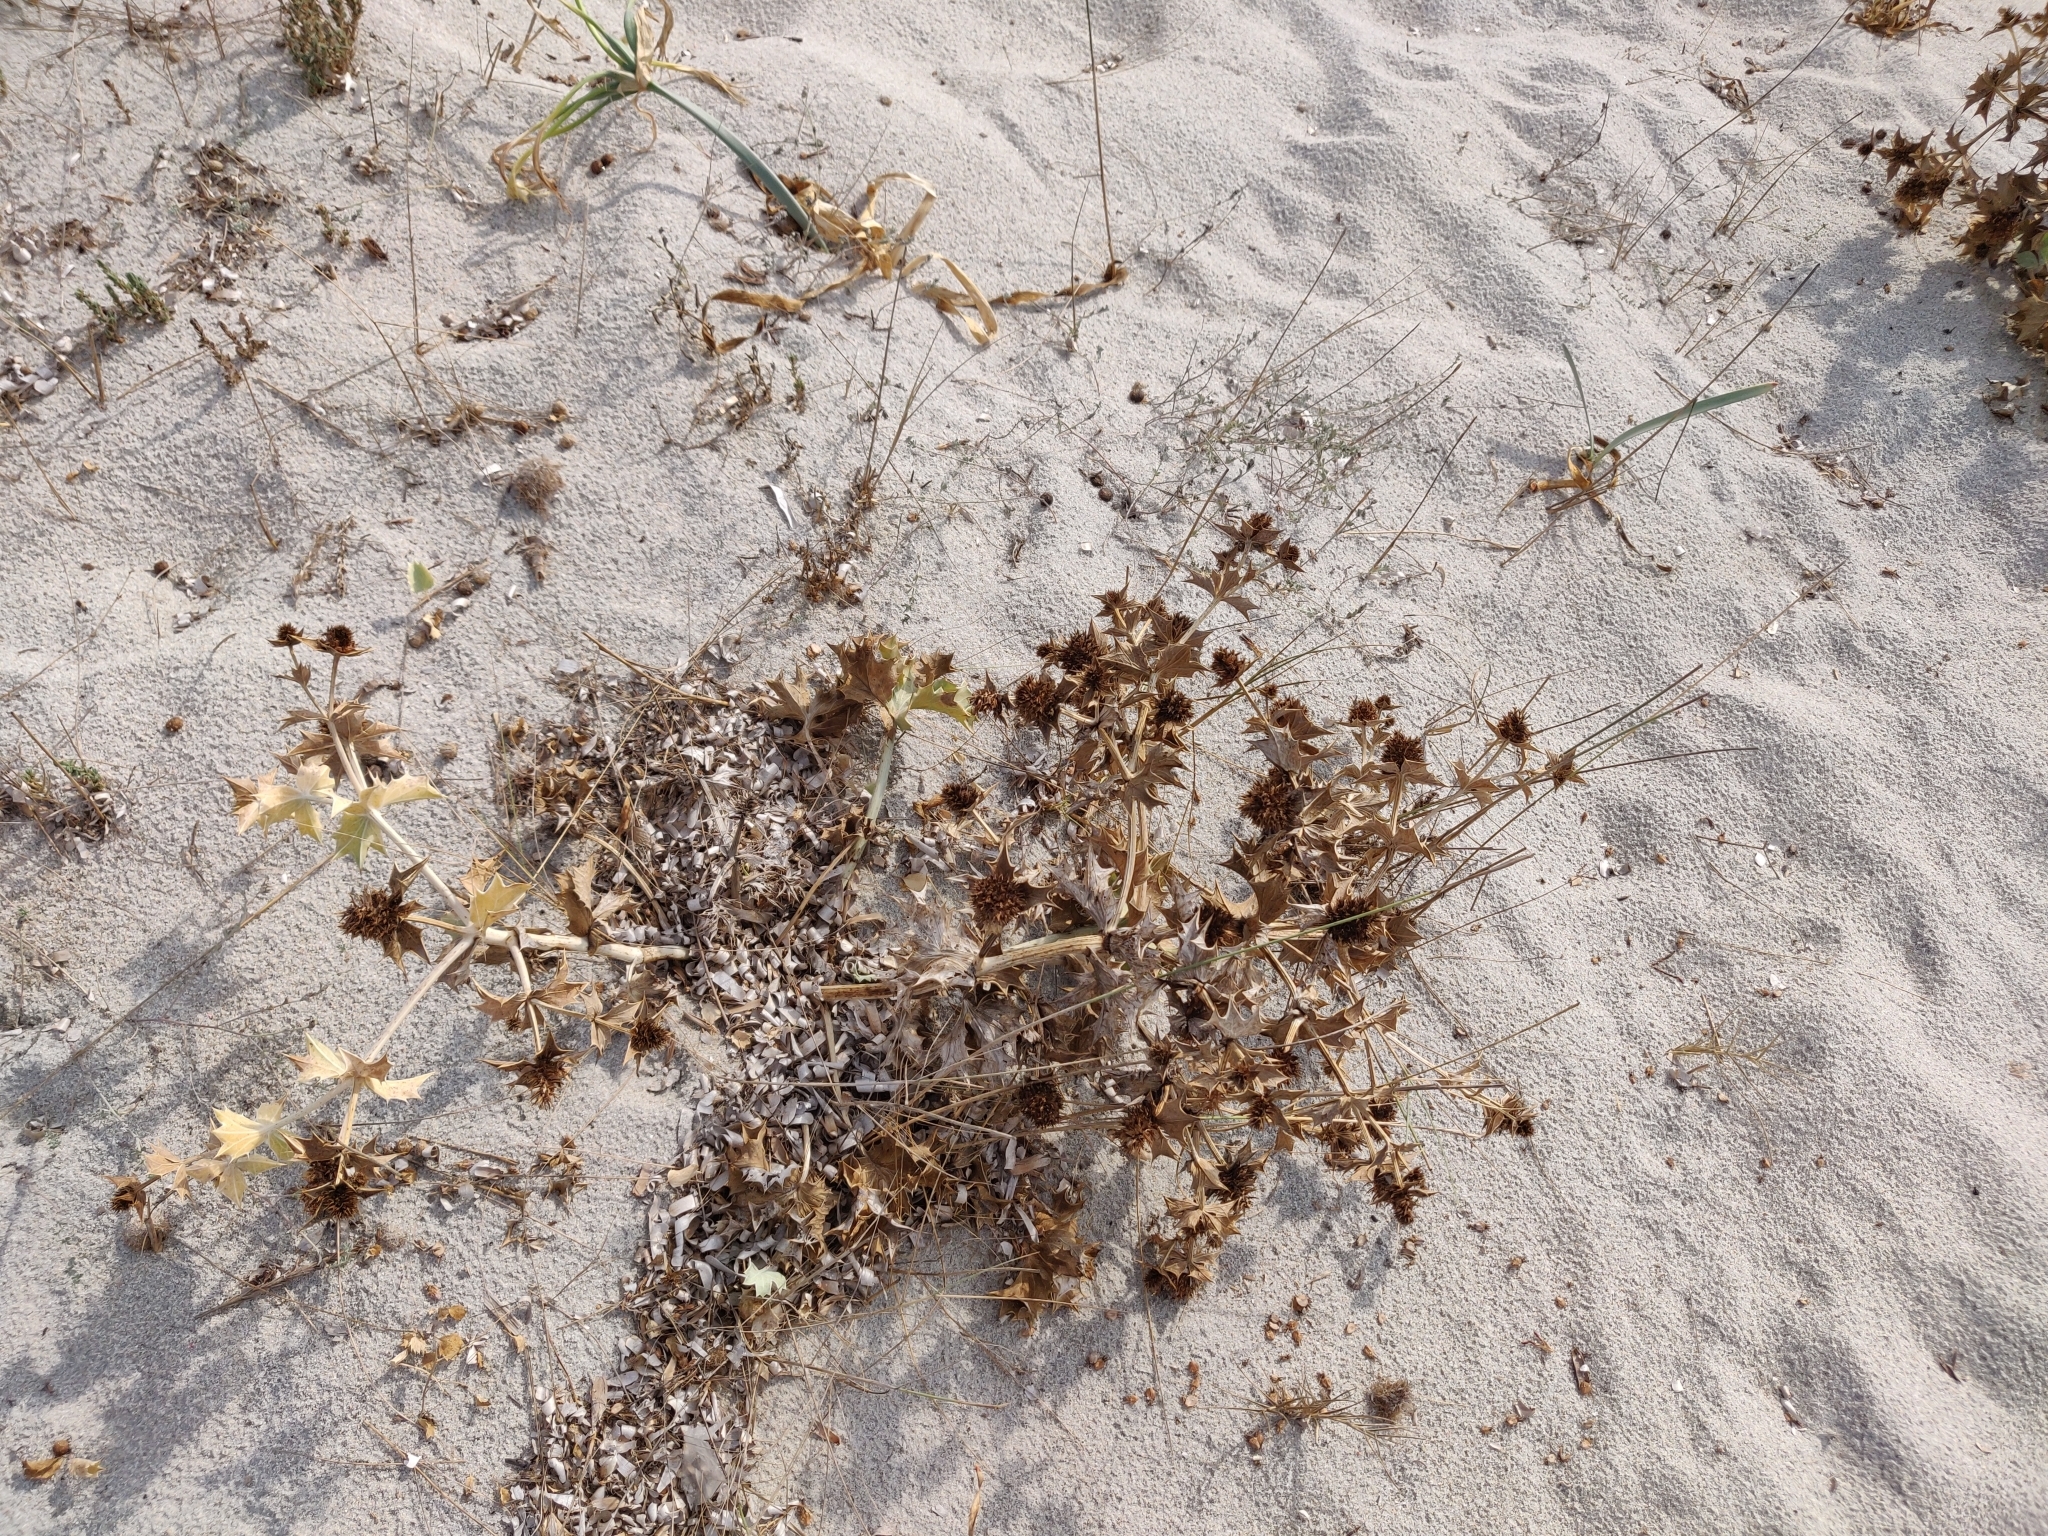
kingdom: Plantae
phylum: Tracheophyta
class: Magnoliopsida
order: Apiales
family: Apiaceae
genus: Eryngium
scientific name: Eryngium maritimum
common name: Sea-holly
